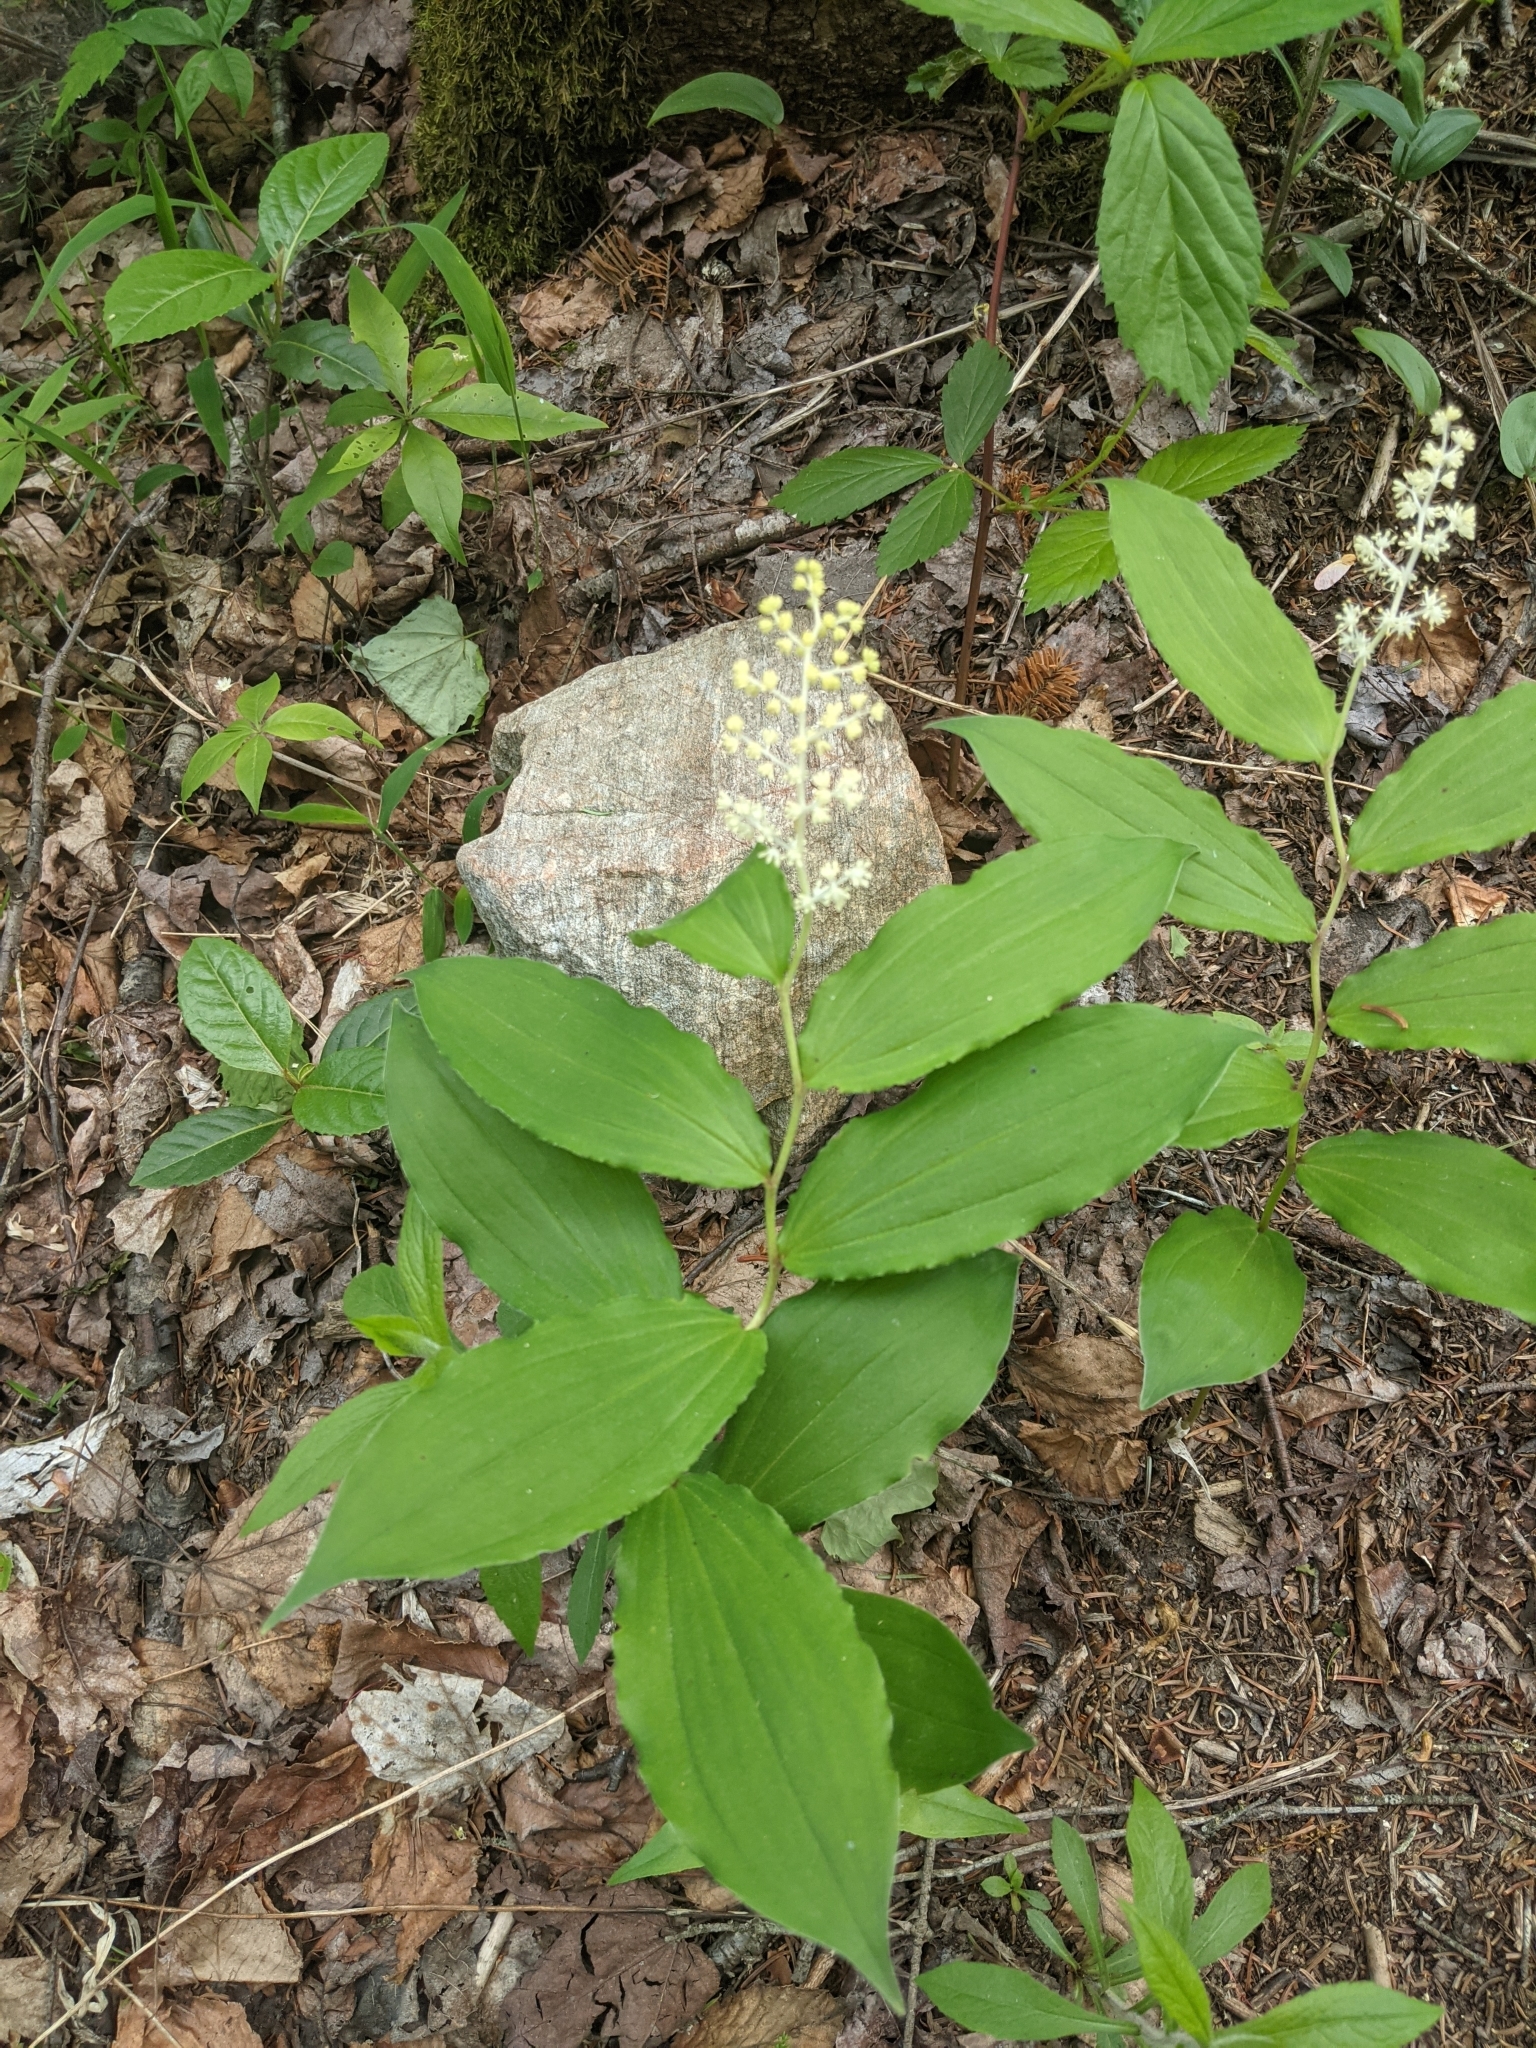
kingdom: Plantae
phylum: Tracheophyta
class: Liliopsida
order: Asparagales
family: Asparagaceae
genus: Maianthemum
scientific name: Maianthemum racemosum
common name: False spikenard
